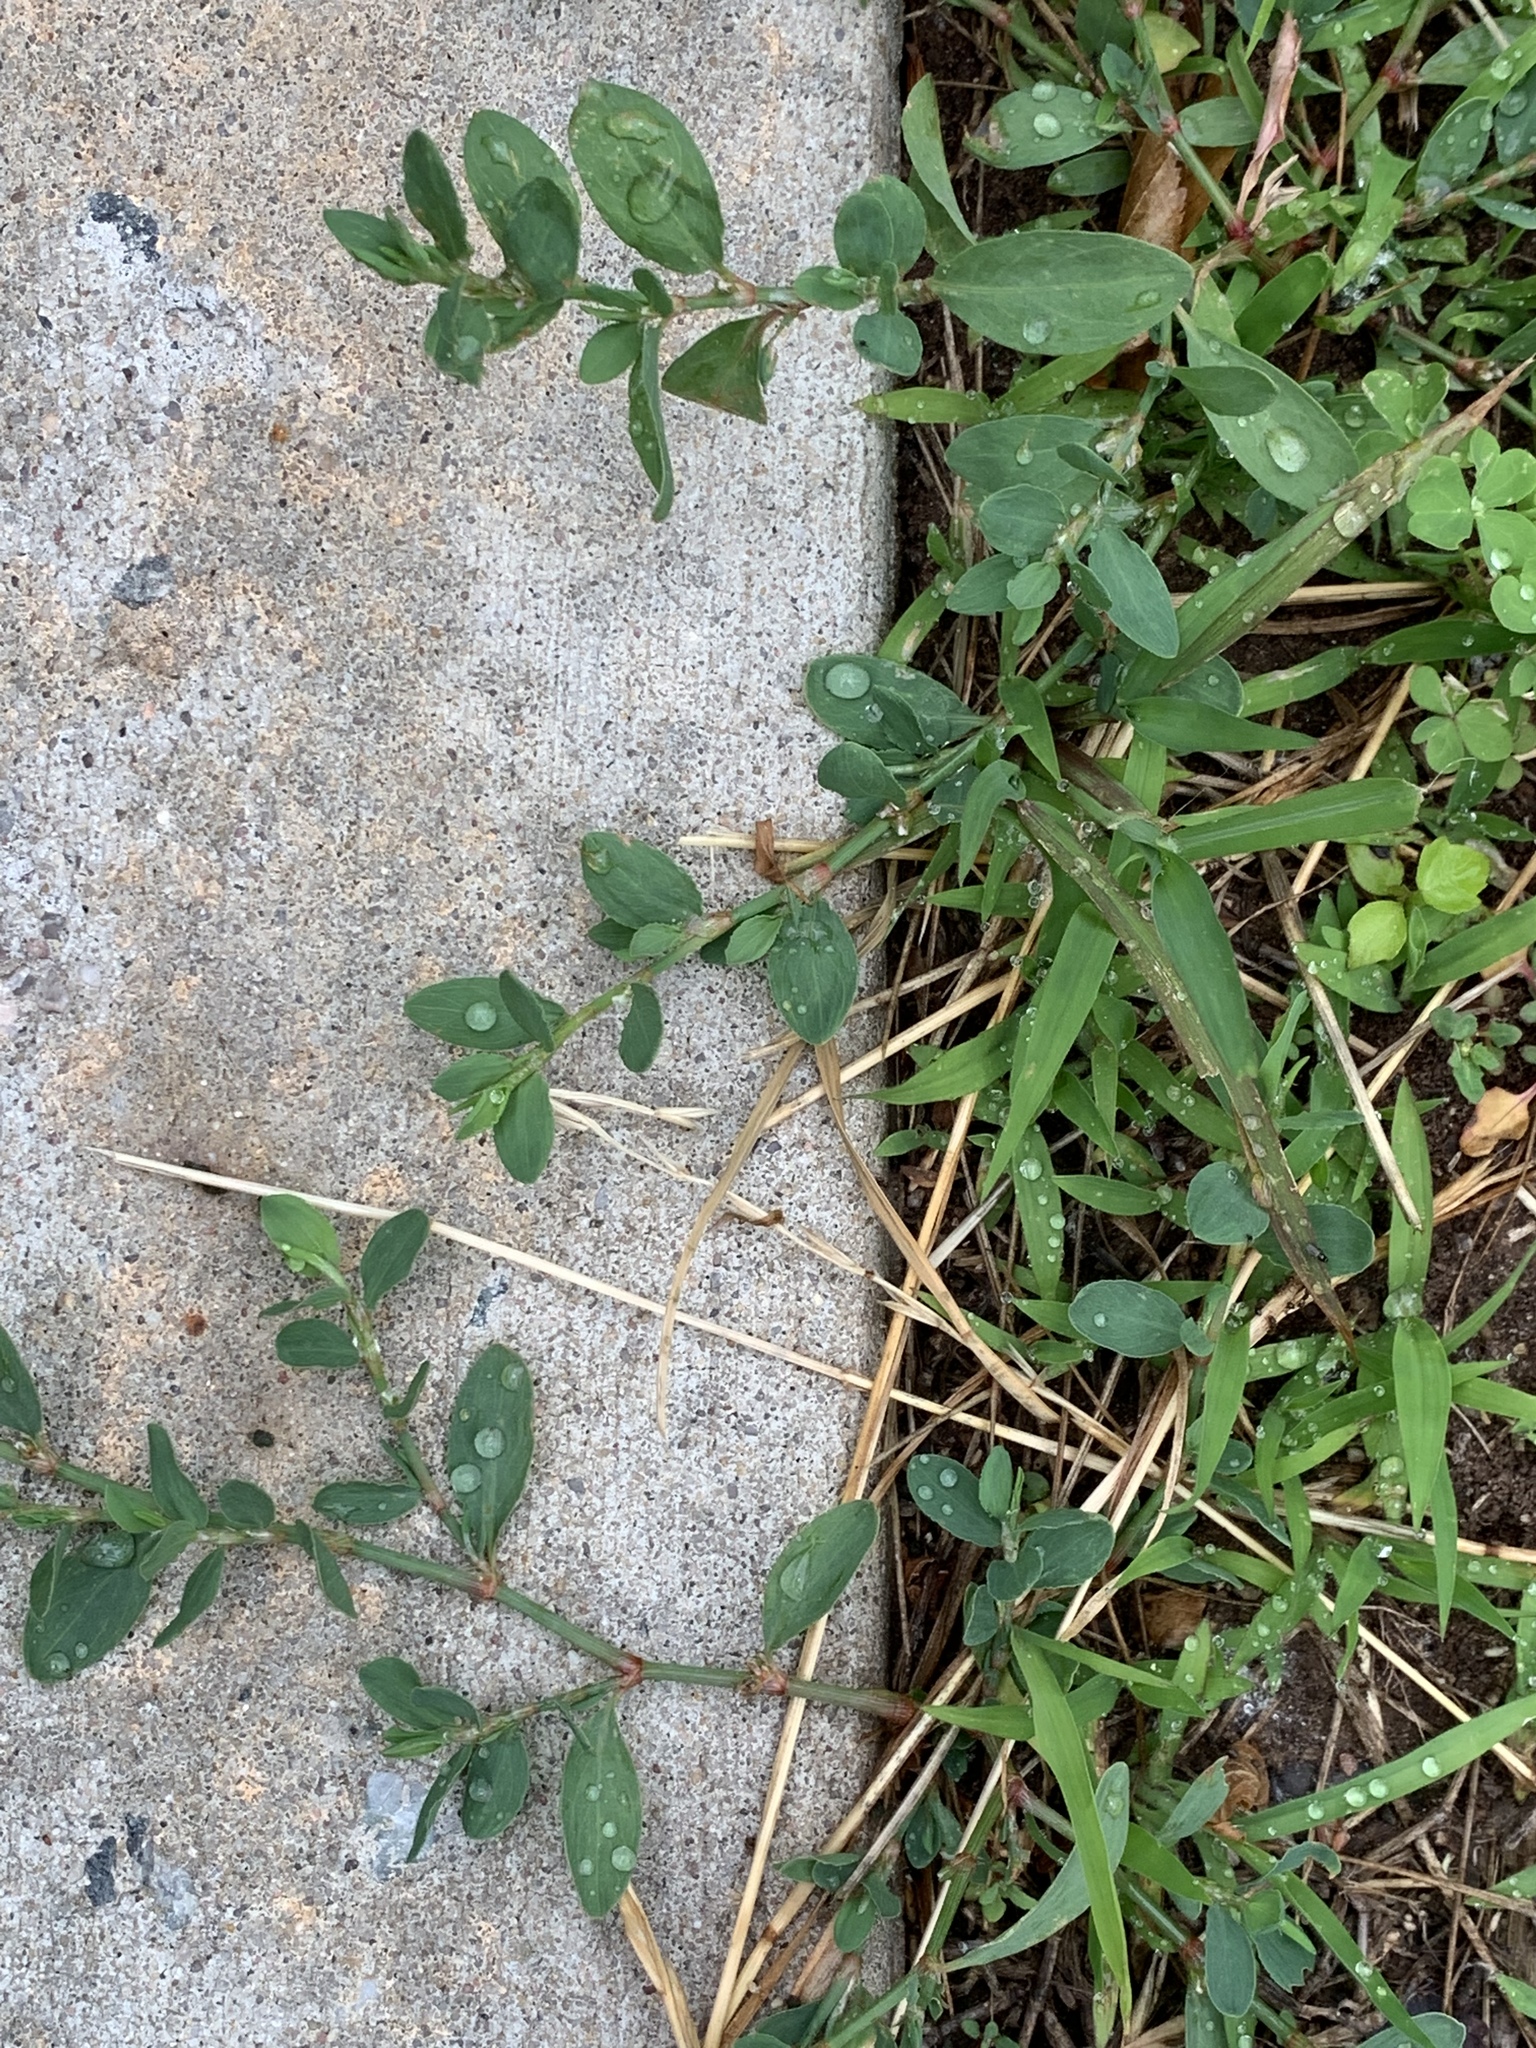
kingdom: Plantae
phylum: Tracheophyta
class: Magnoliopsida
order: Caryophyllales
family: Polygonaceae
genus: Polygonum
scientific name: Polygonum aviculare
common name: Prostrate knotweed
